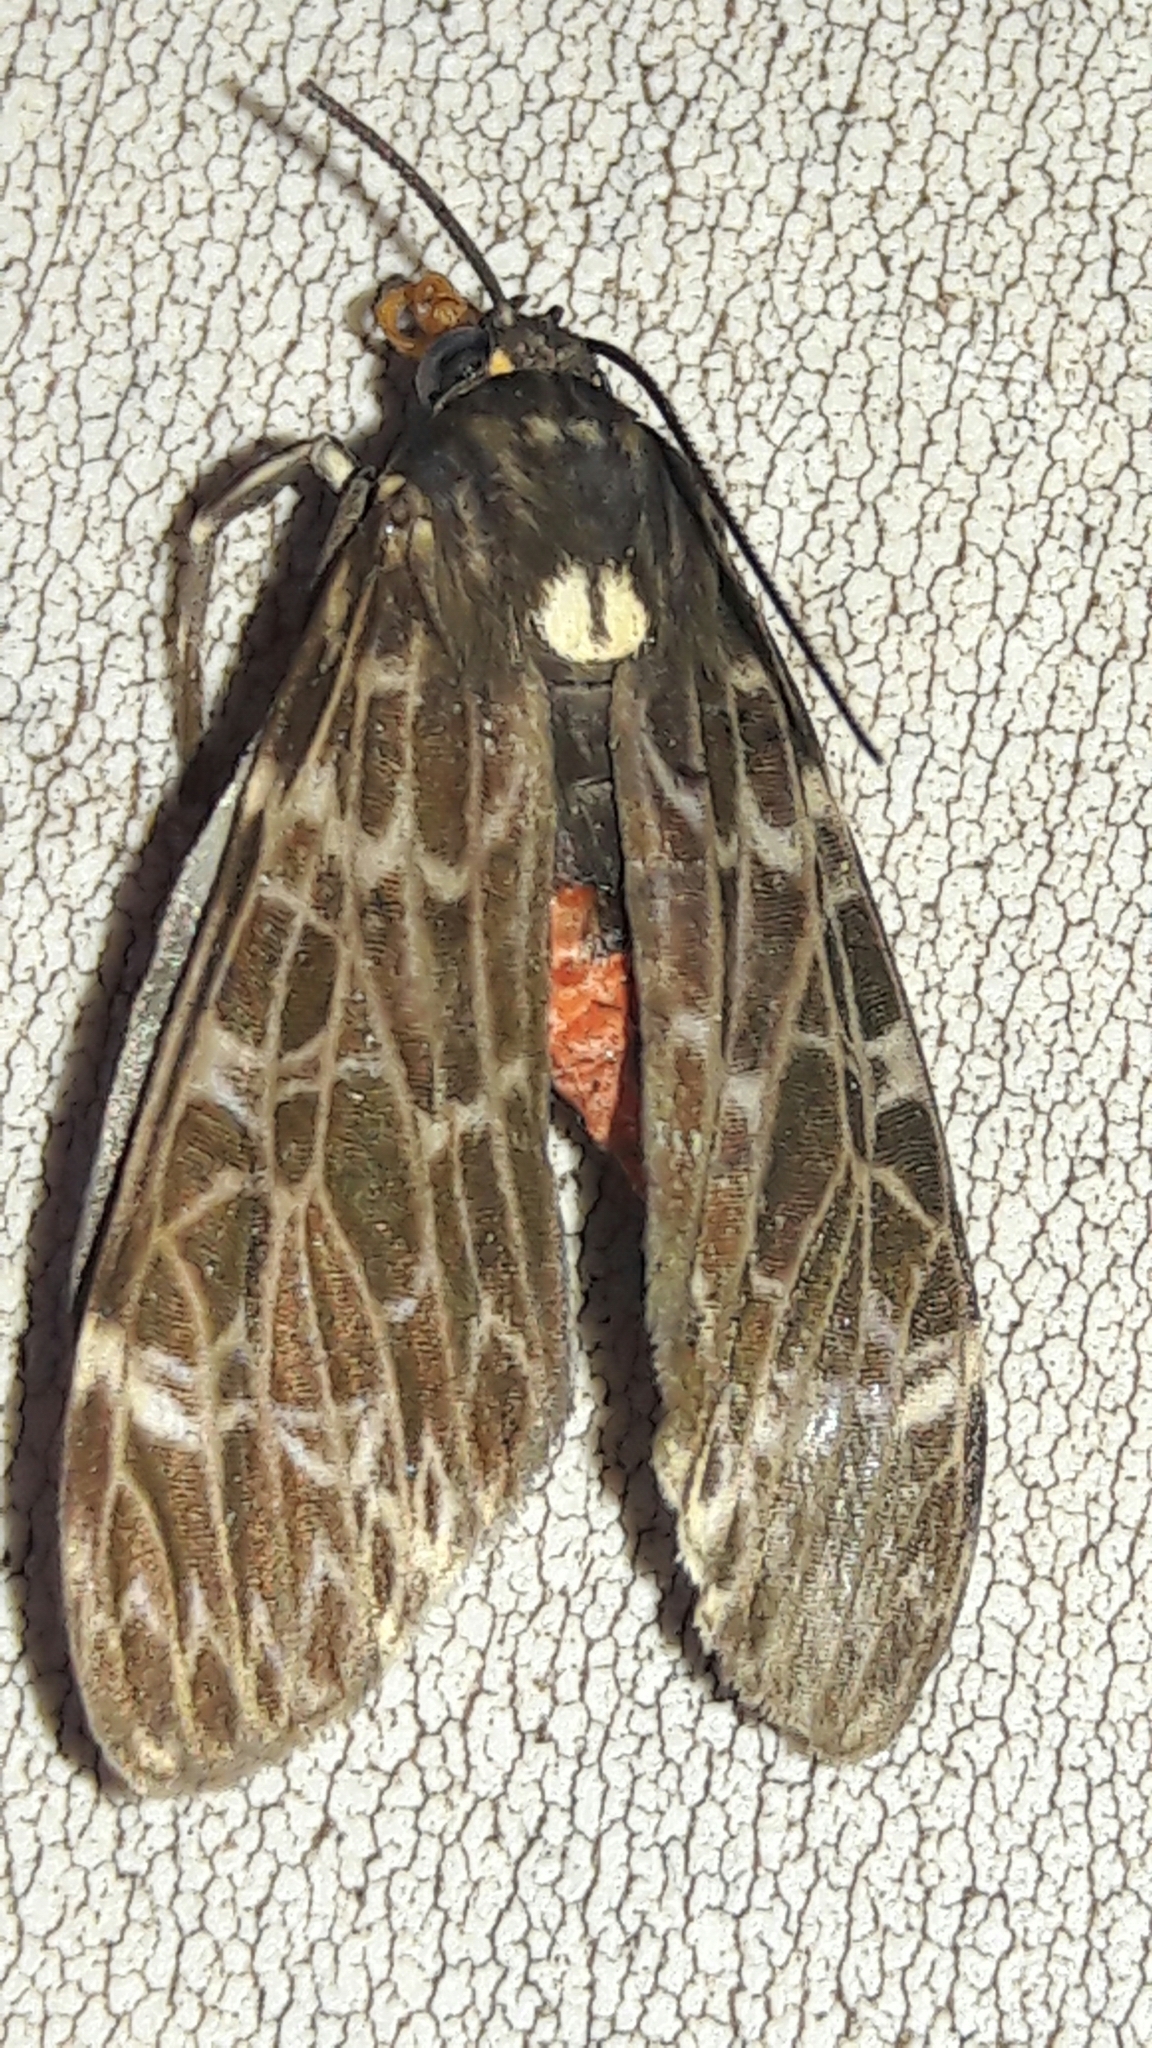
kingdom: Animalia
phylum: Arthropoda
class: Insecta
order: Lepidoptera
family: Erebidae
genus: Eucereon
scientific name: Eucereon sylvius
